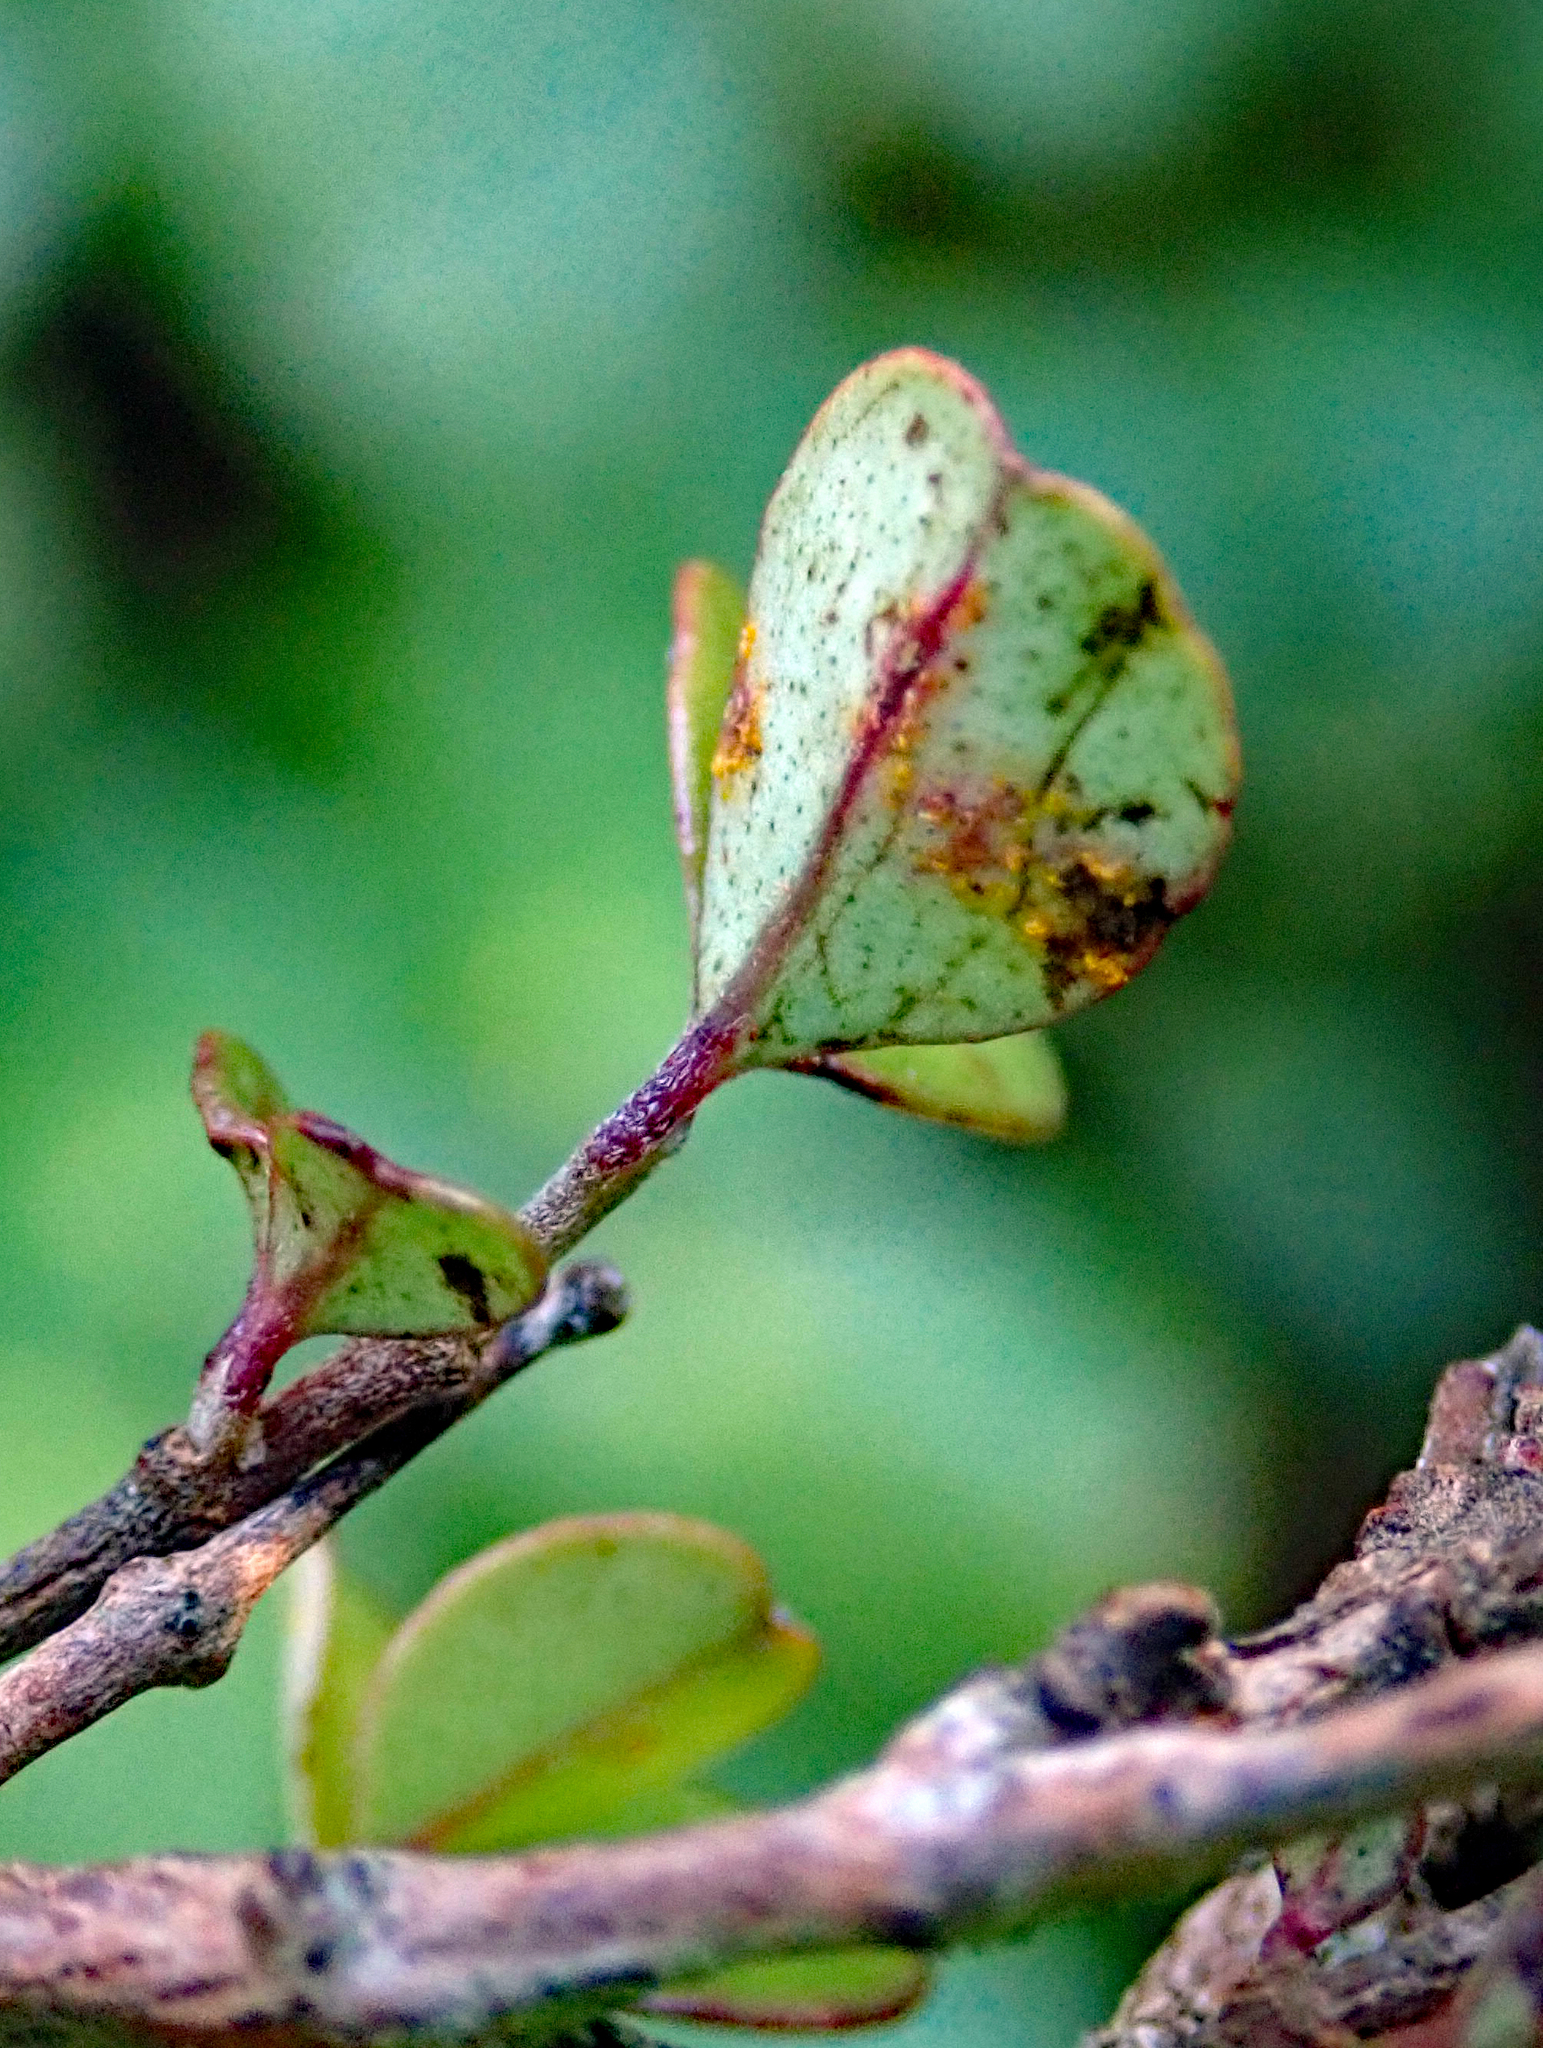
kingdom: Fungi
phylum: Basidiomycota
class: Pucciniomycetes
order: Pucciniales
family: Sphaerophragmiaceae
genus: Austropuccinia
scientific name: Austropuccinia psidii
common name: Myrtle rust
